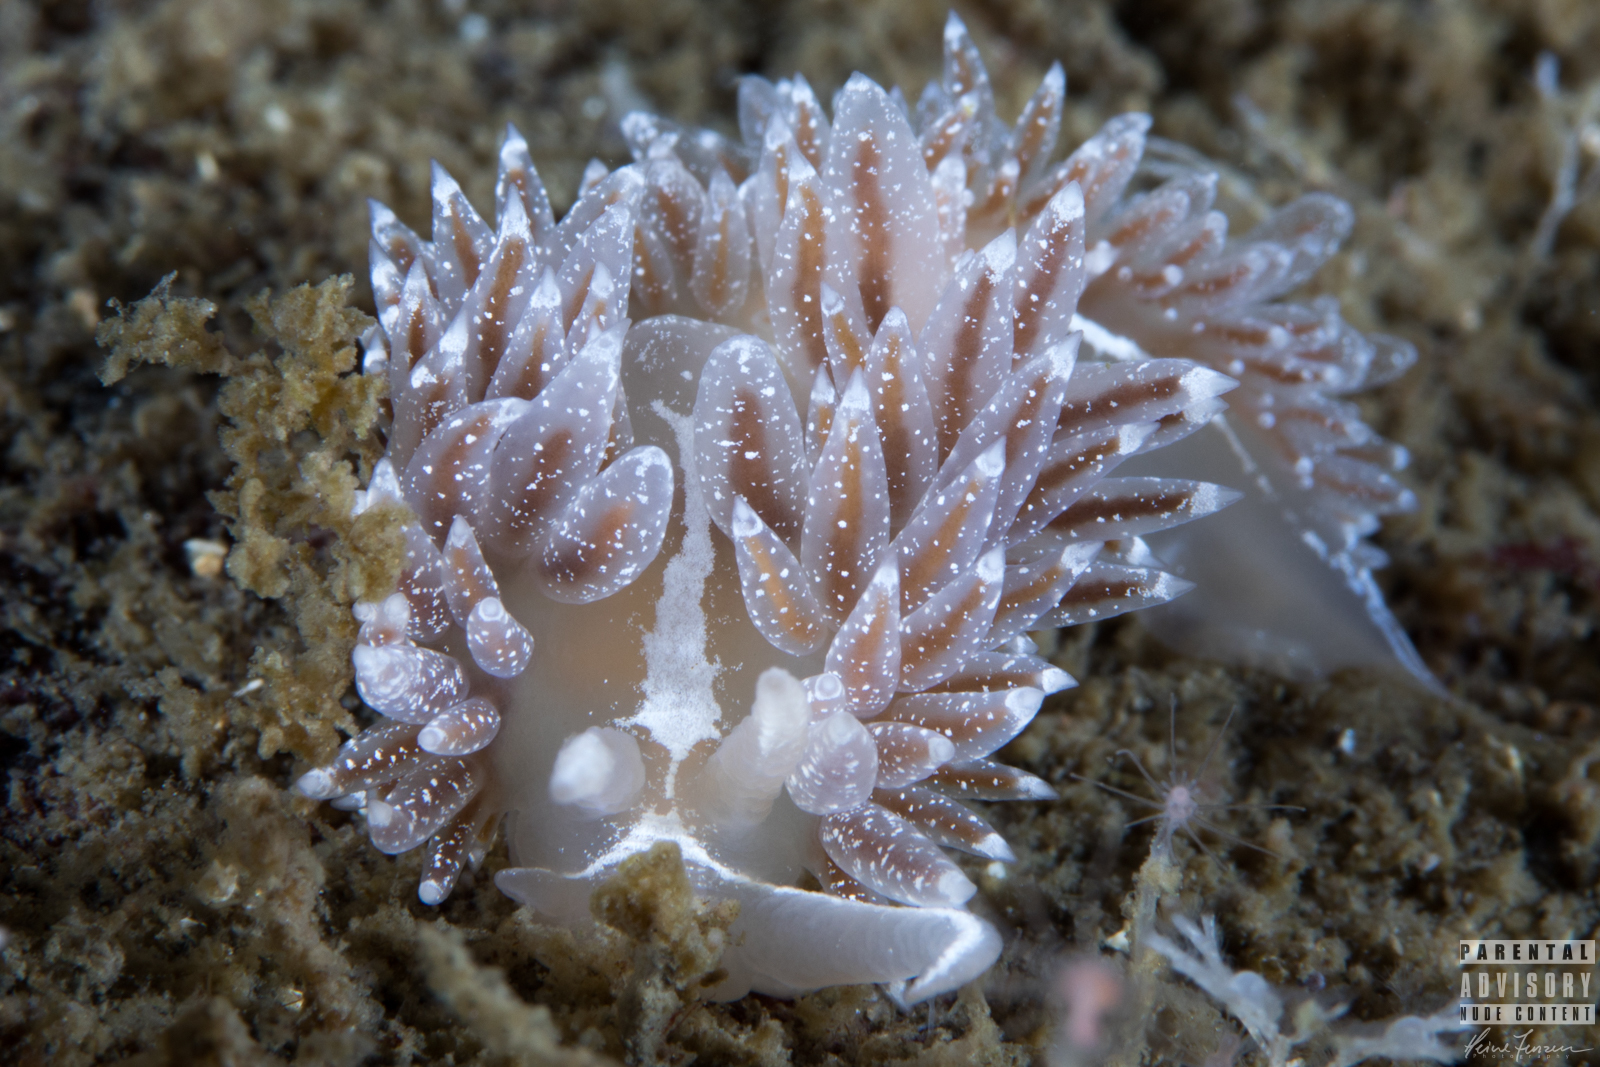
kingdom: Animalia
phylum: Mollusca
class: Gastropoda
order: Nudibranchia
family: Coryphellidae
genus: Coryphella
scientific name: Coryphella monicae
